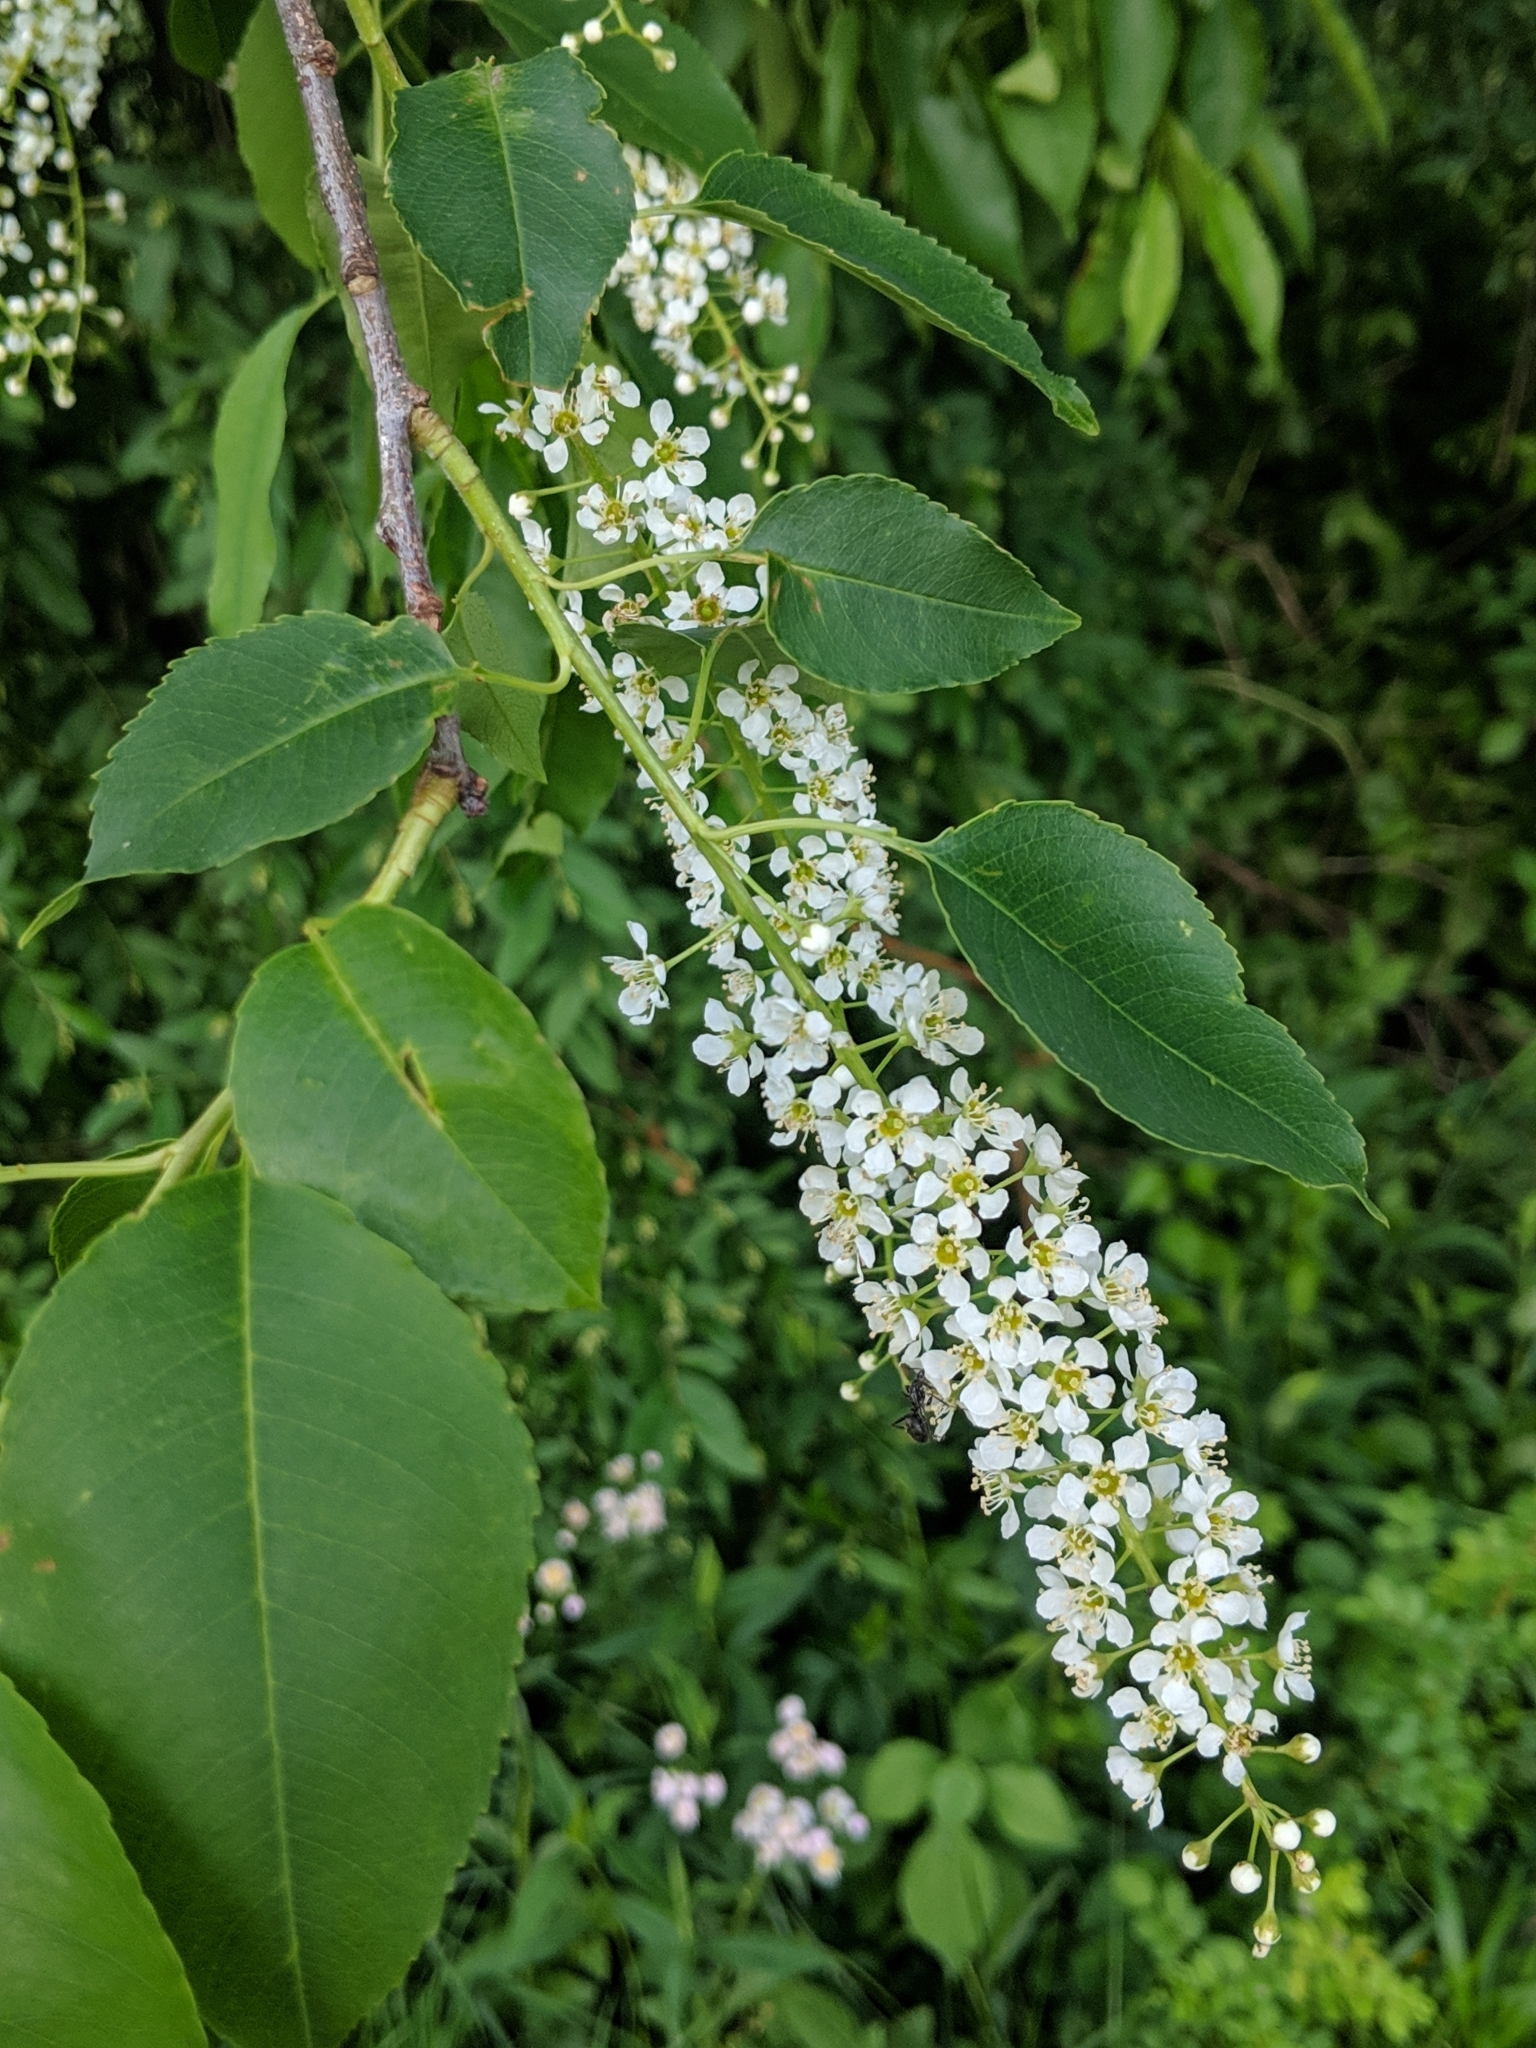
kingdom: Plantae
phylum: Tracheophyta
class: Magnoliopsida
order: Rosales
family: Rosaceae
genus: Prunus
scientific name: Prunus serotina
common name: Black cherry
